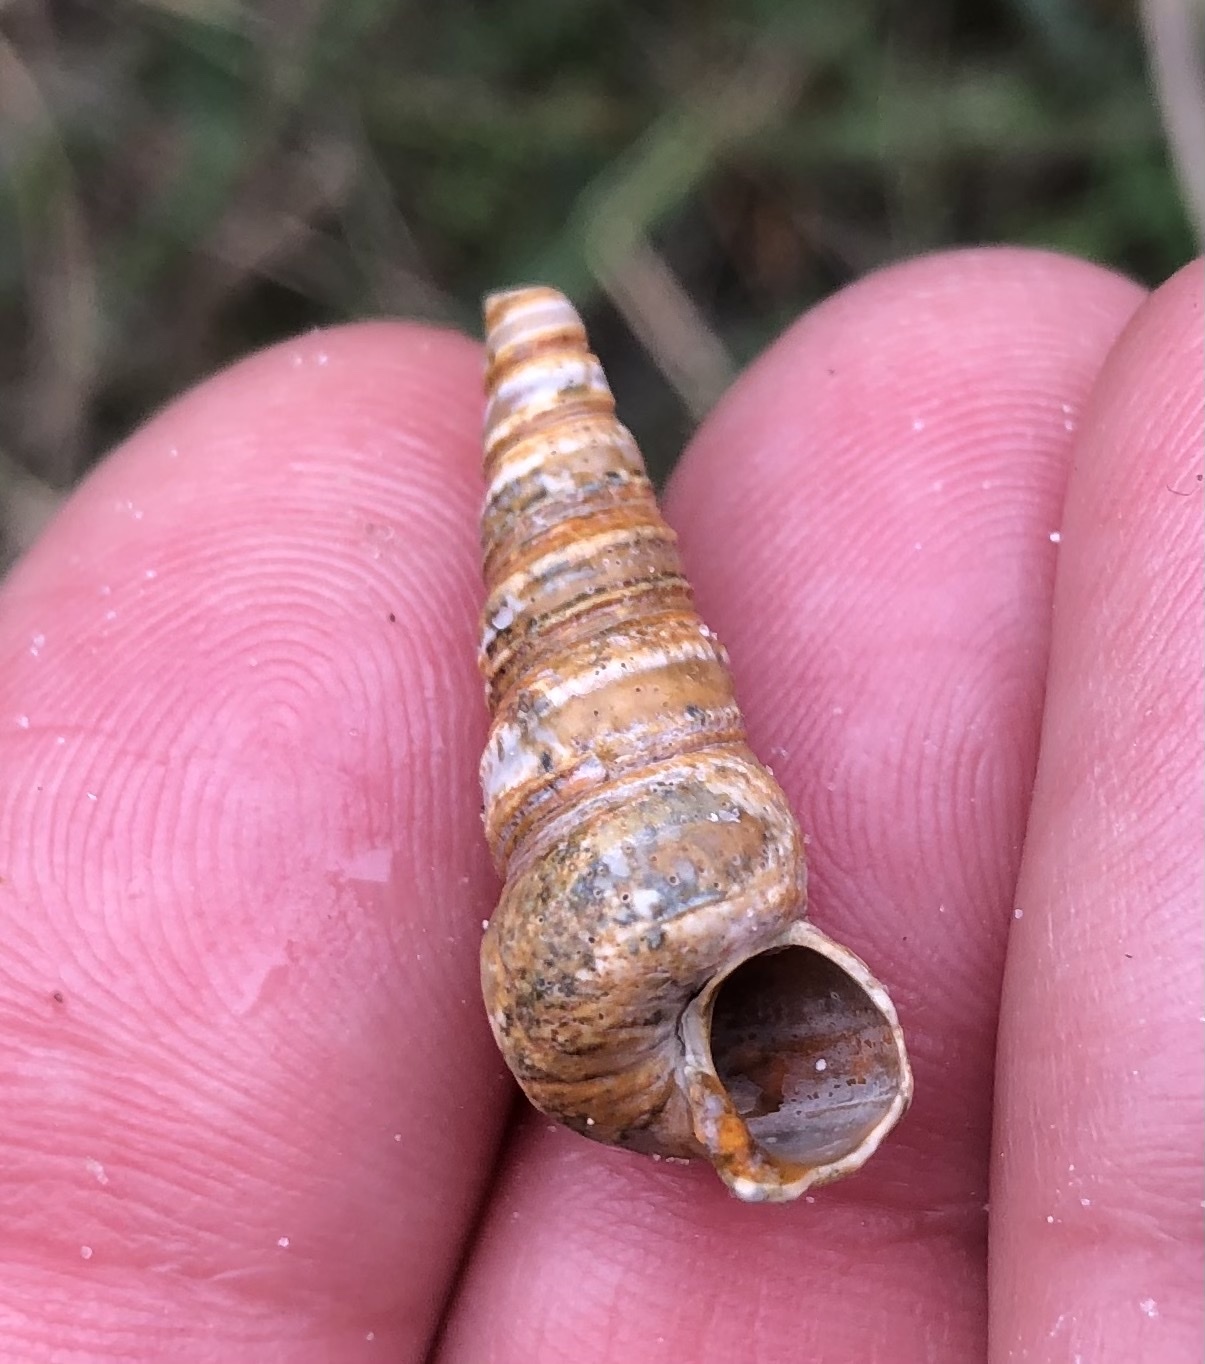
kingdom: Animalia
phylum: Mollusca
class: Gastropoda
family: Turritellidae
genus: Turritellinella
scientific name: Turritellinella tricarinata
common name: Auger shell
